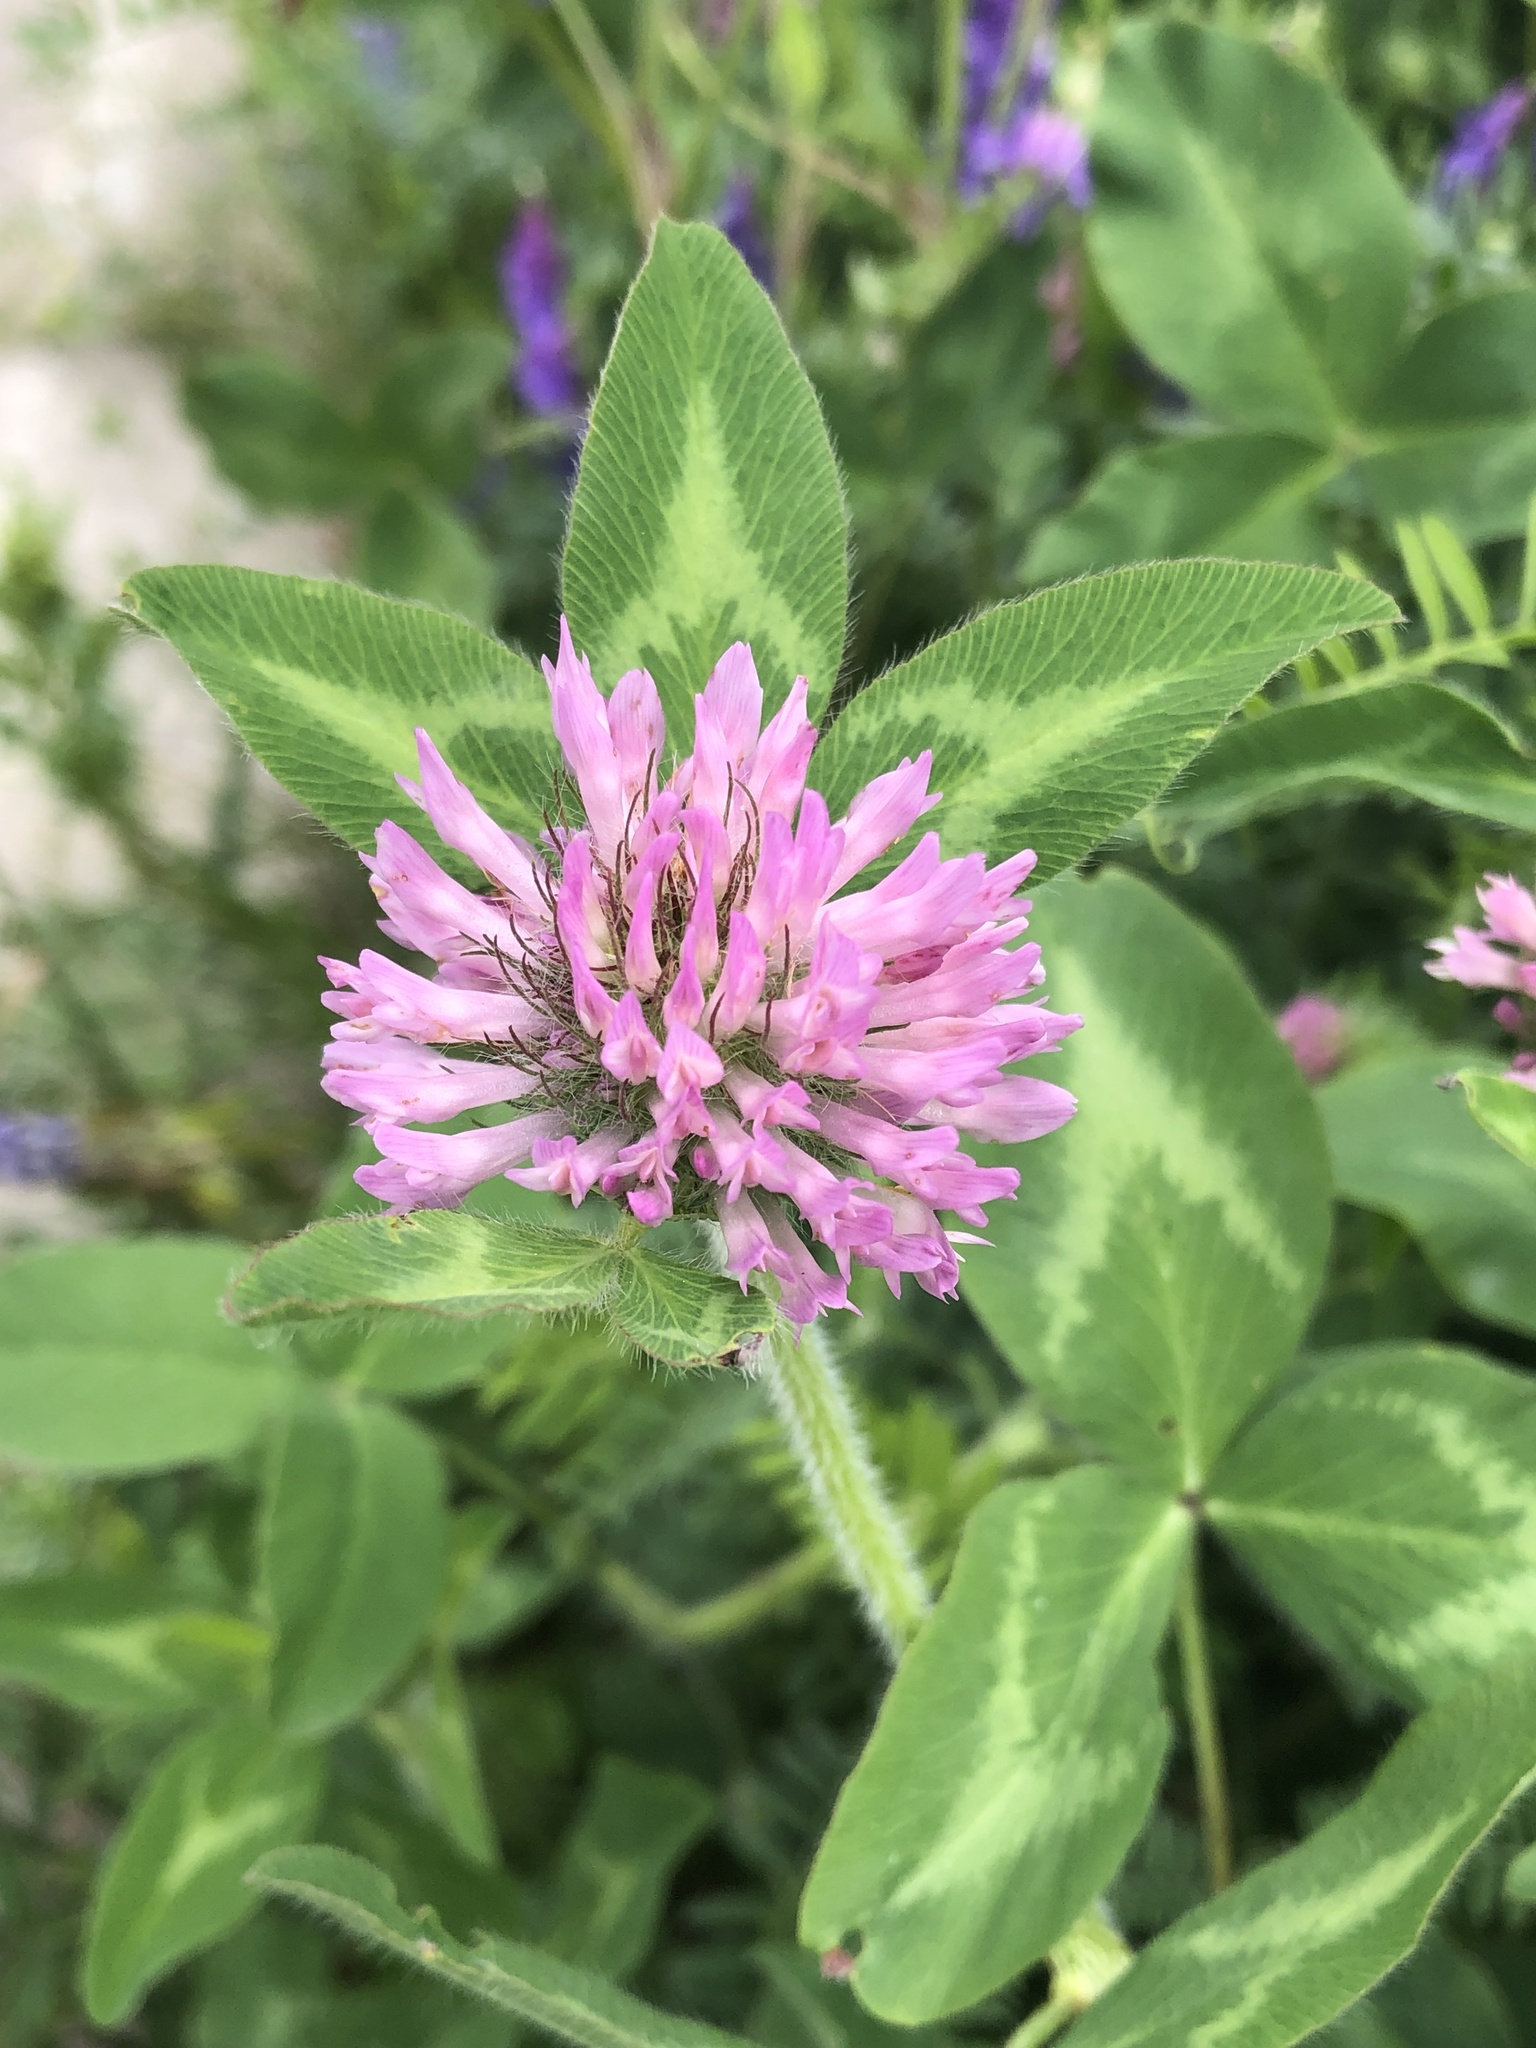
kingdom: Plantae
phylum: Tracheophyta
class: Magnoliopsida
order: Fabales
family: Fabaceae
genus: Trifolium
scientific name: Trifolium pratense
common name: Red clover
